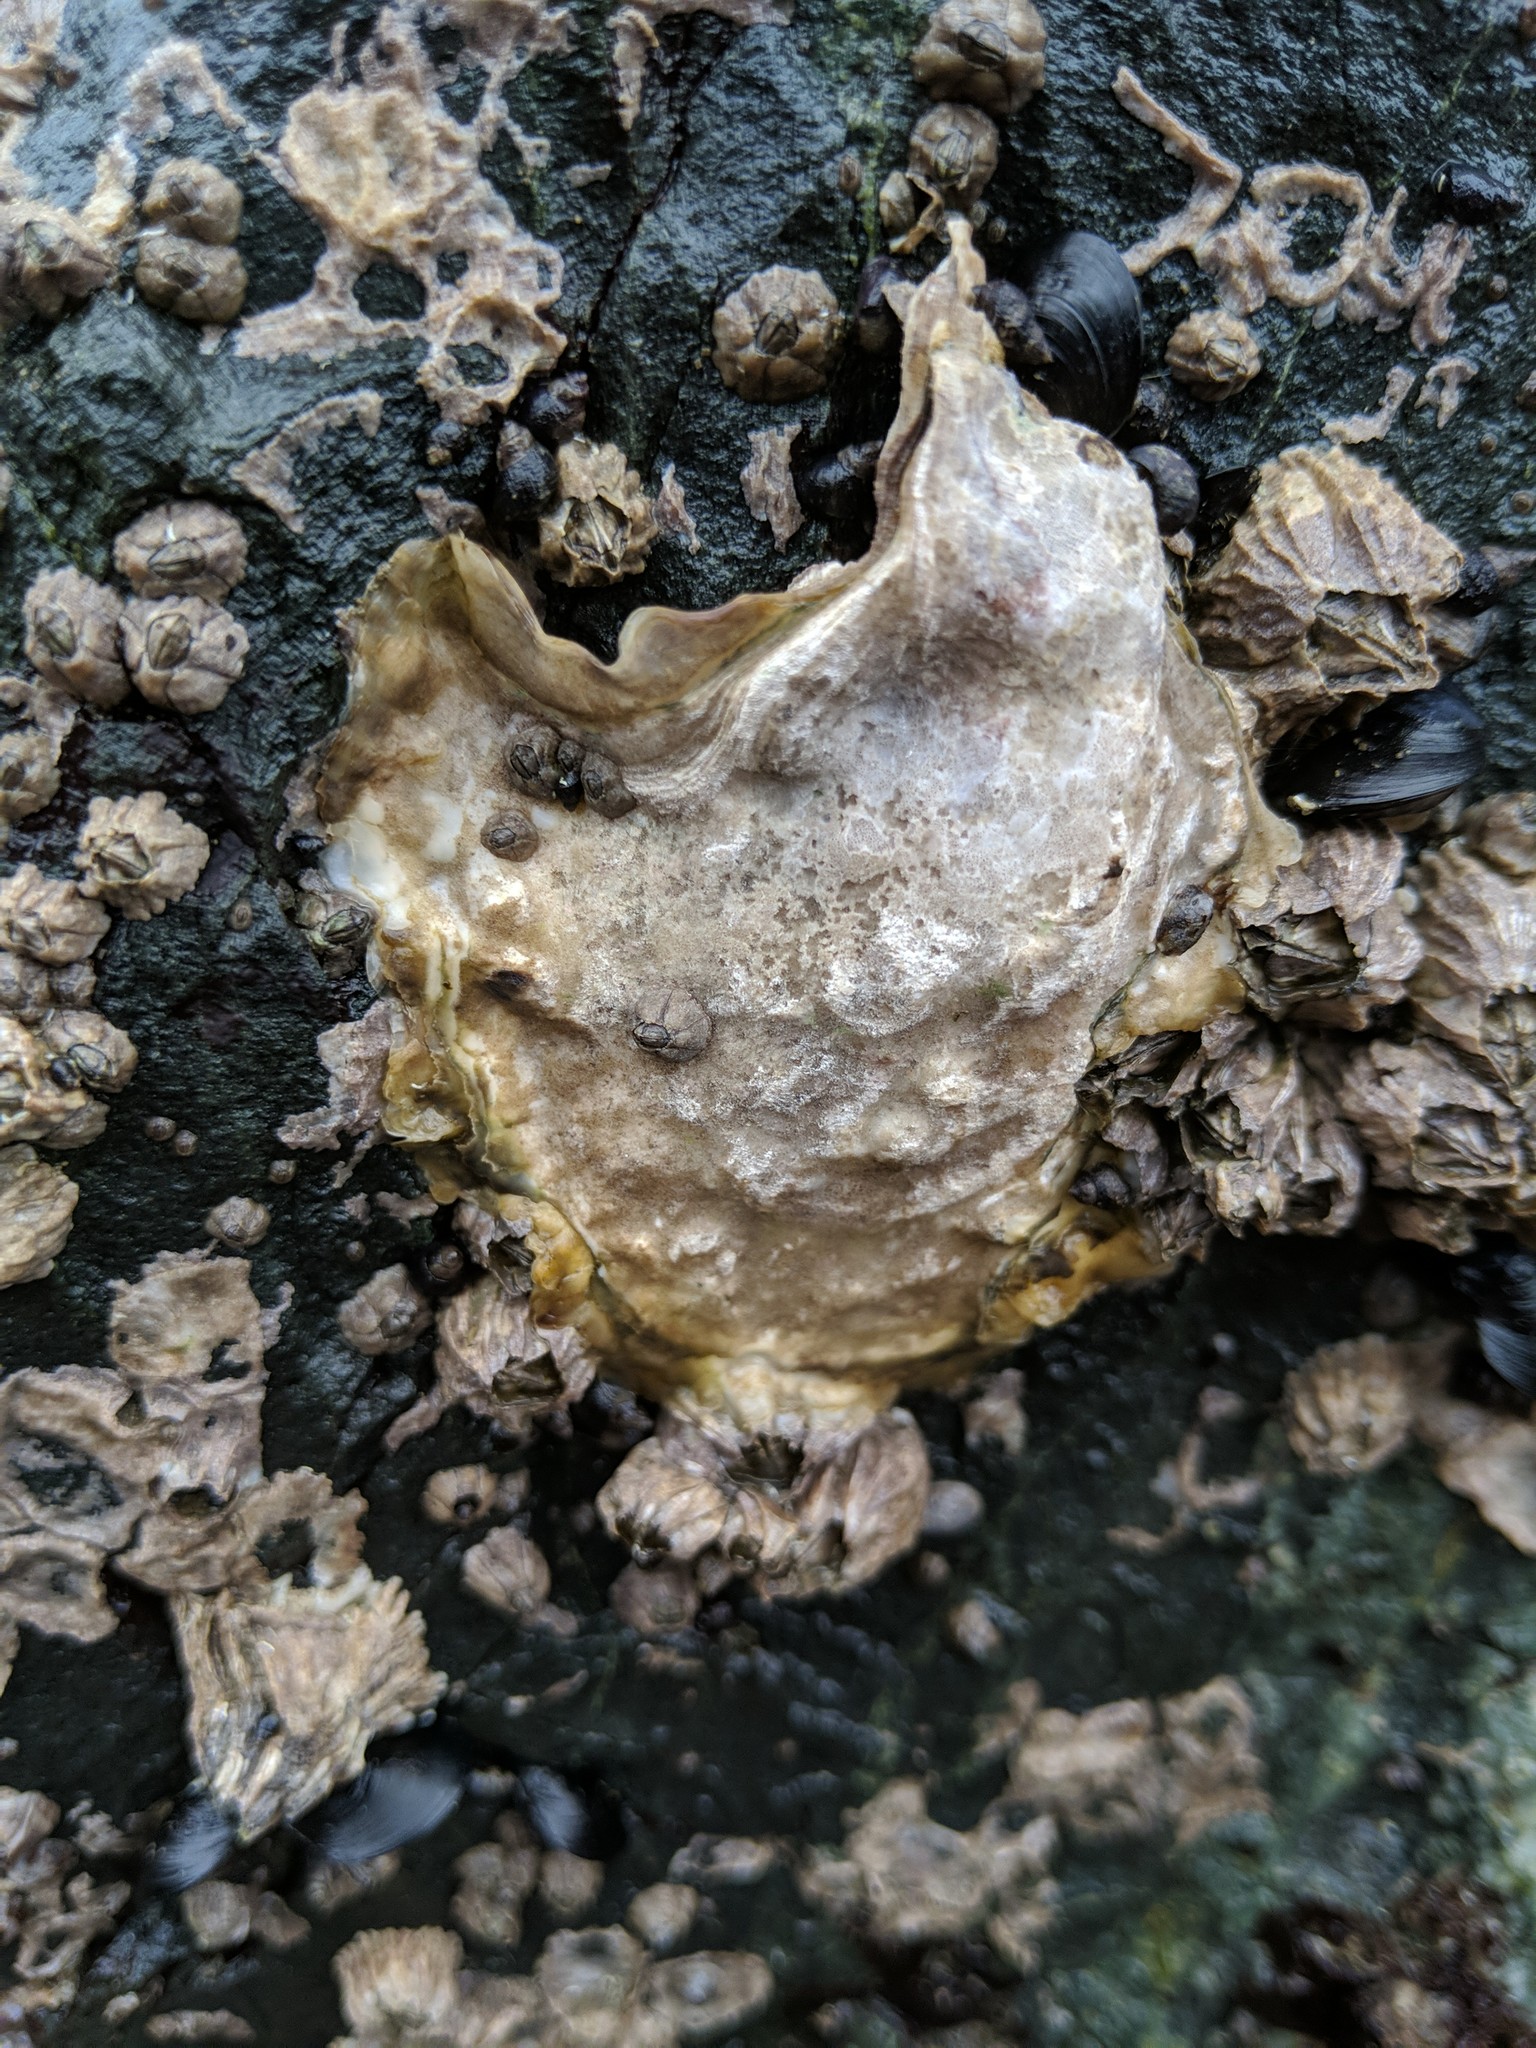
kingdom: Animalia
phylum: Mollusca
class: Bivalvia
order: Ostreida
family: Ostreidae
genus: Magallana
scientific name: Magallana gigas
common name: Pacific oyster
